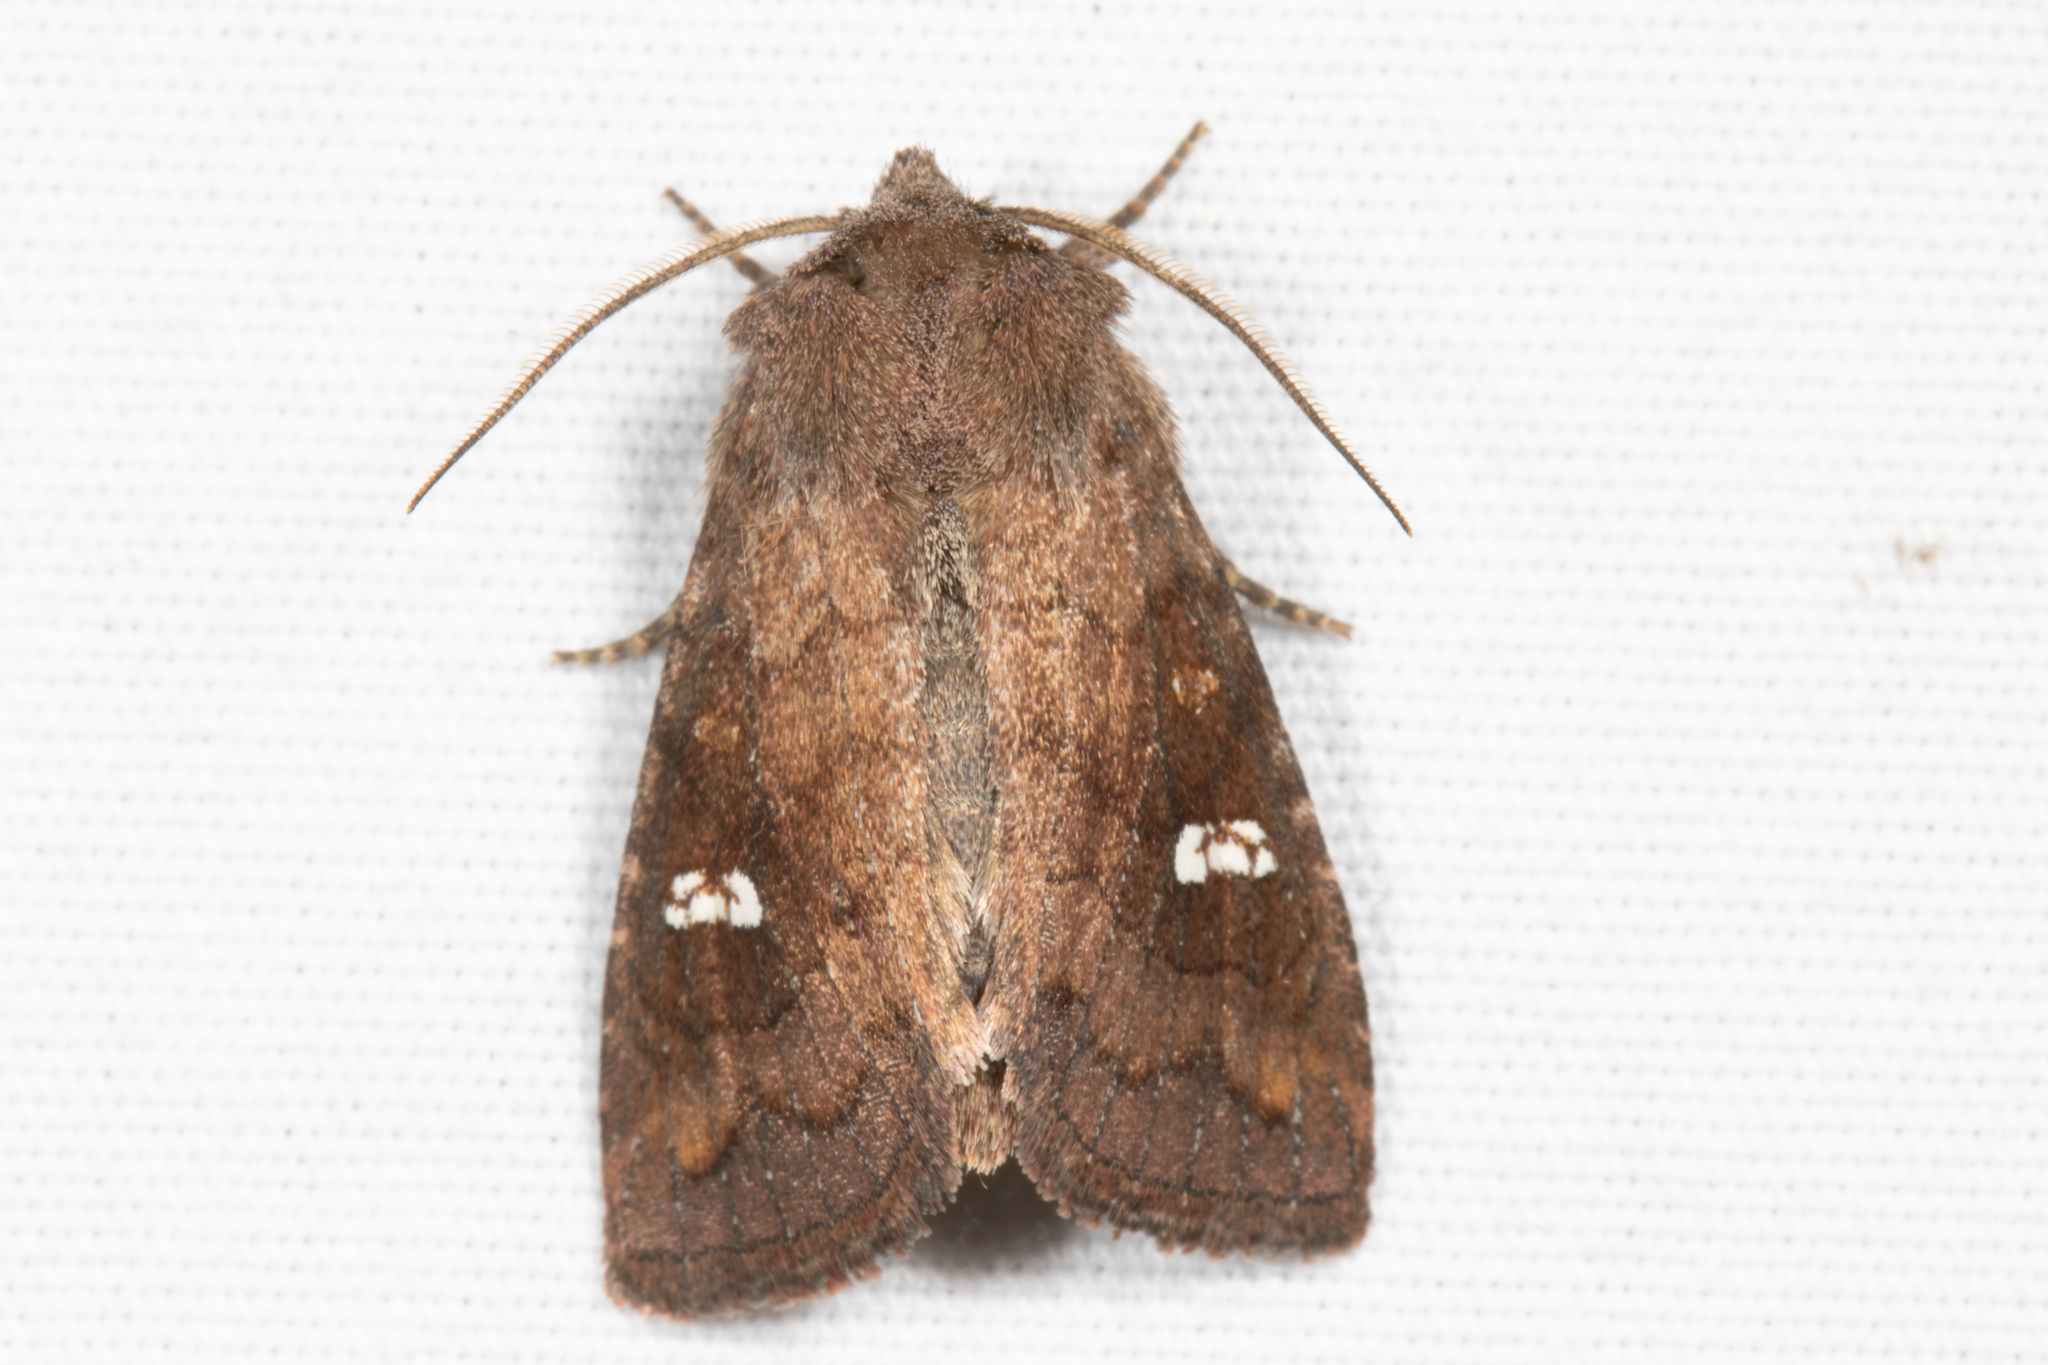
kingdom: Animalia
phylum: Arthropoda
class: Insecta
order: Lepidoptera
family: Noctuidae
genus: Tricholita
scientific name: Tricholita signata
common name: Signate quaker
